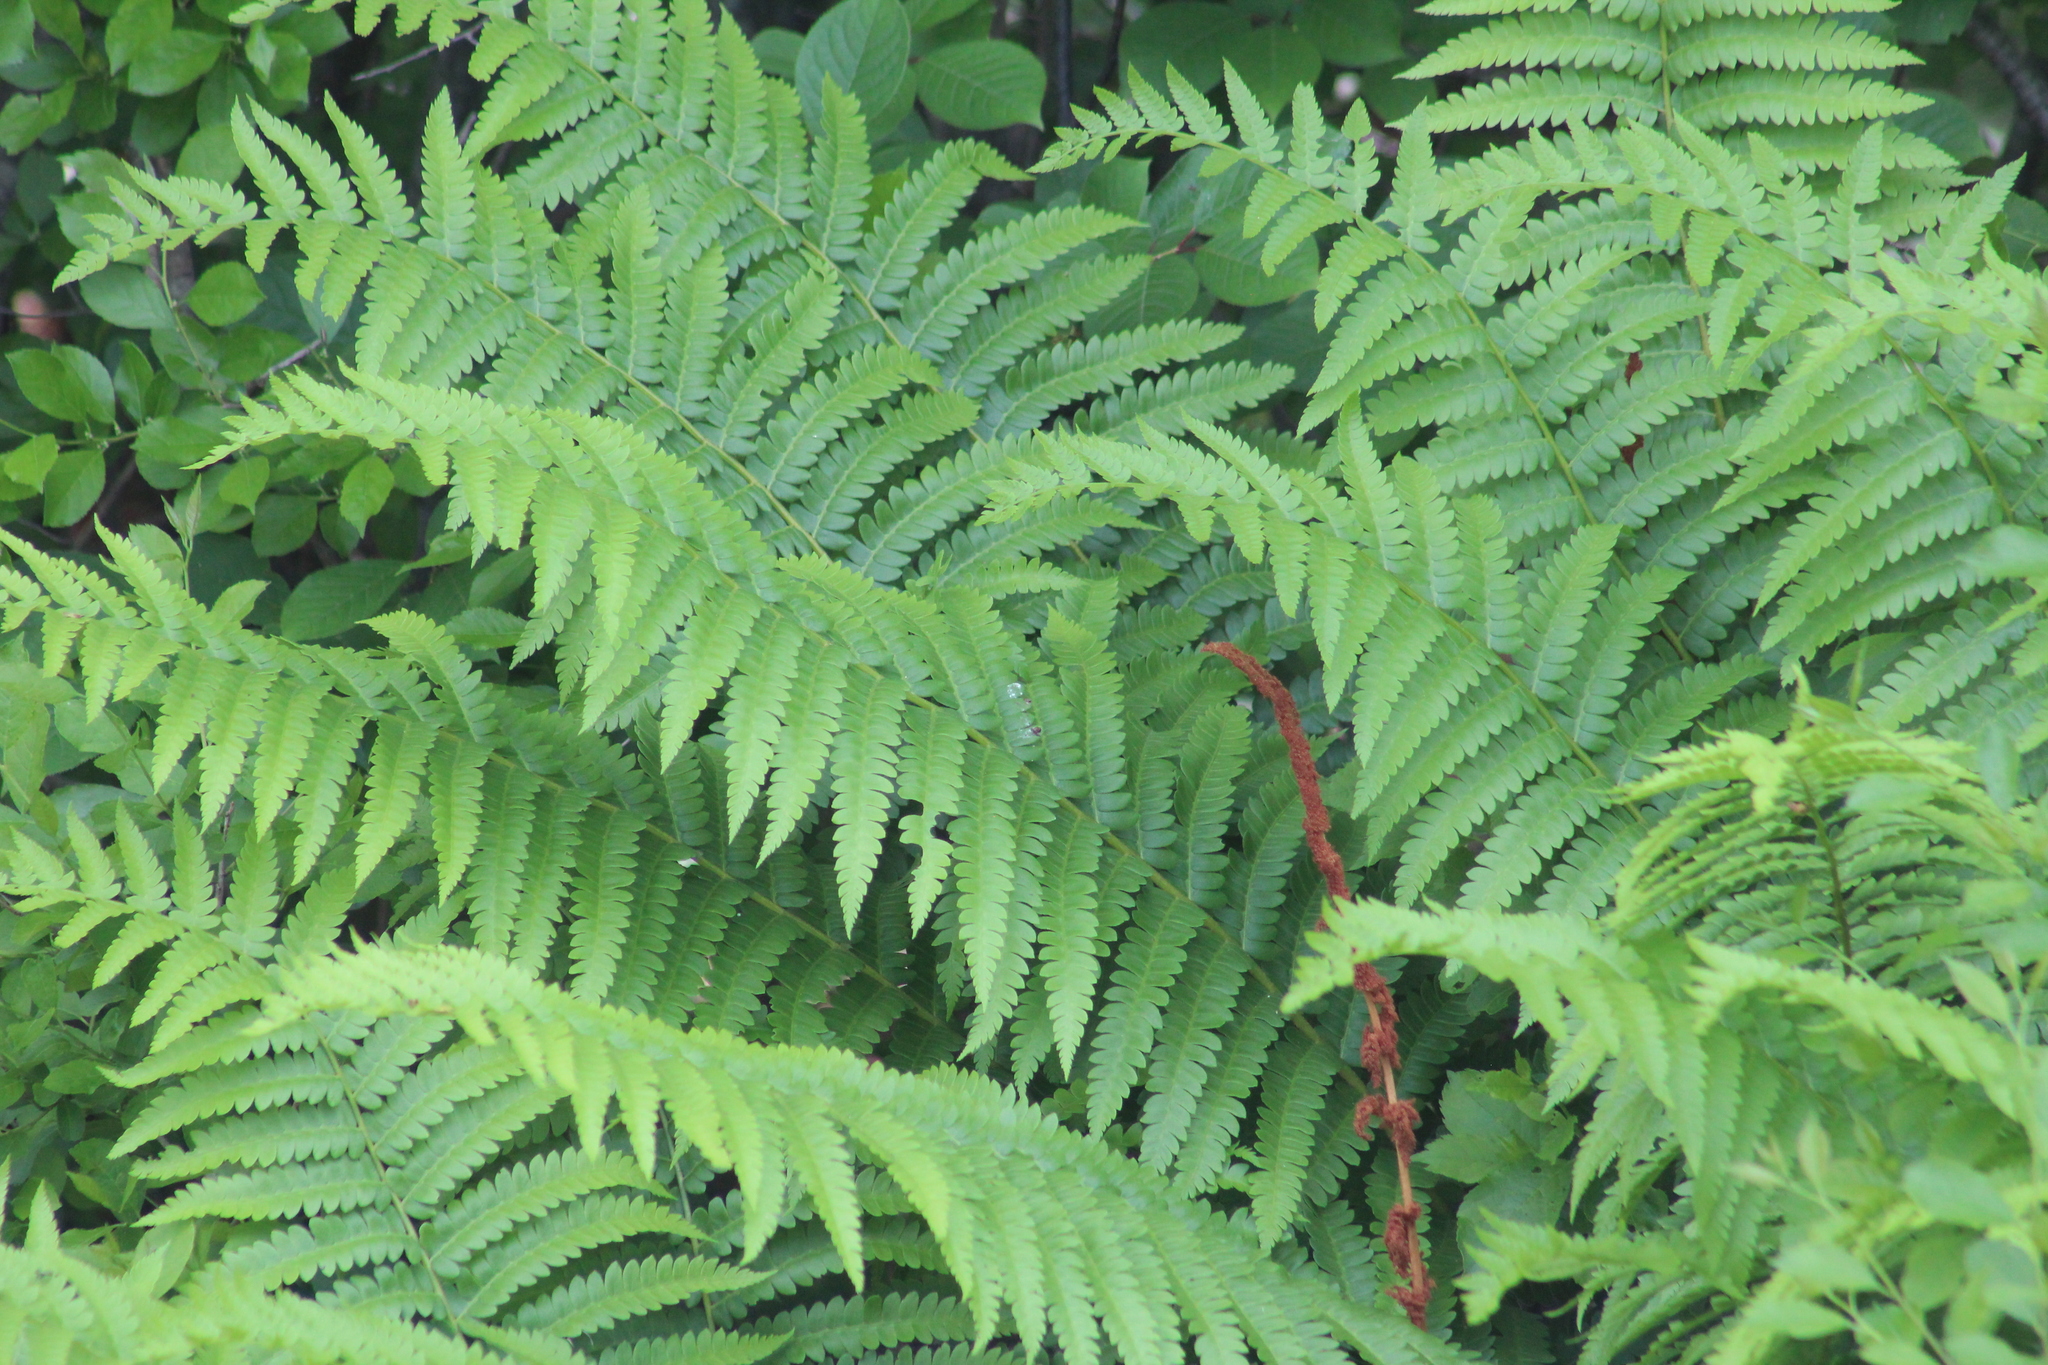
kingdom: Plantae
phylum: Tracheophyta
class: Polypodiopsida
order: Osmundales
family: Osmundaceae
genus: Osmundastrum
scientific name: Osmundastrum cinnamomeum
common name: Cinnamon fern
